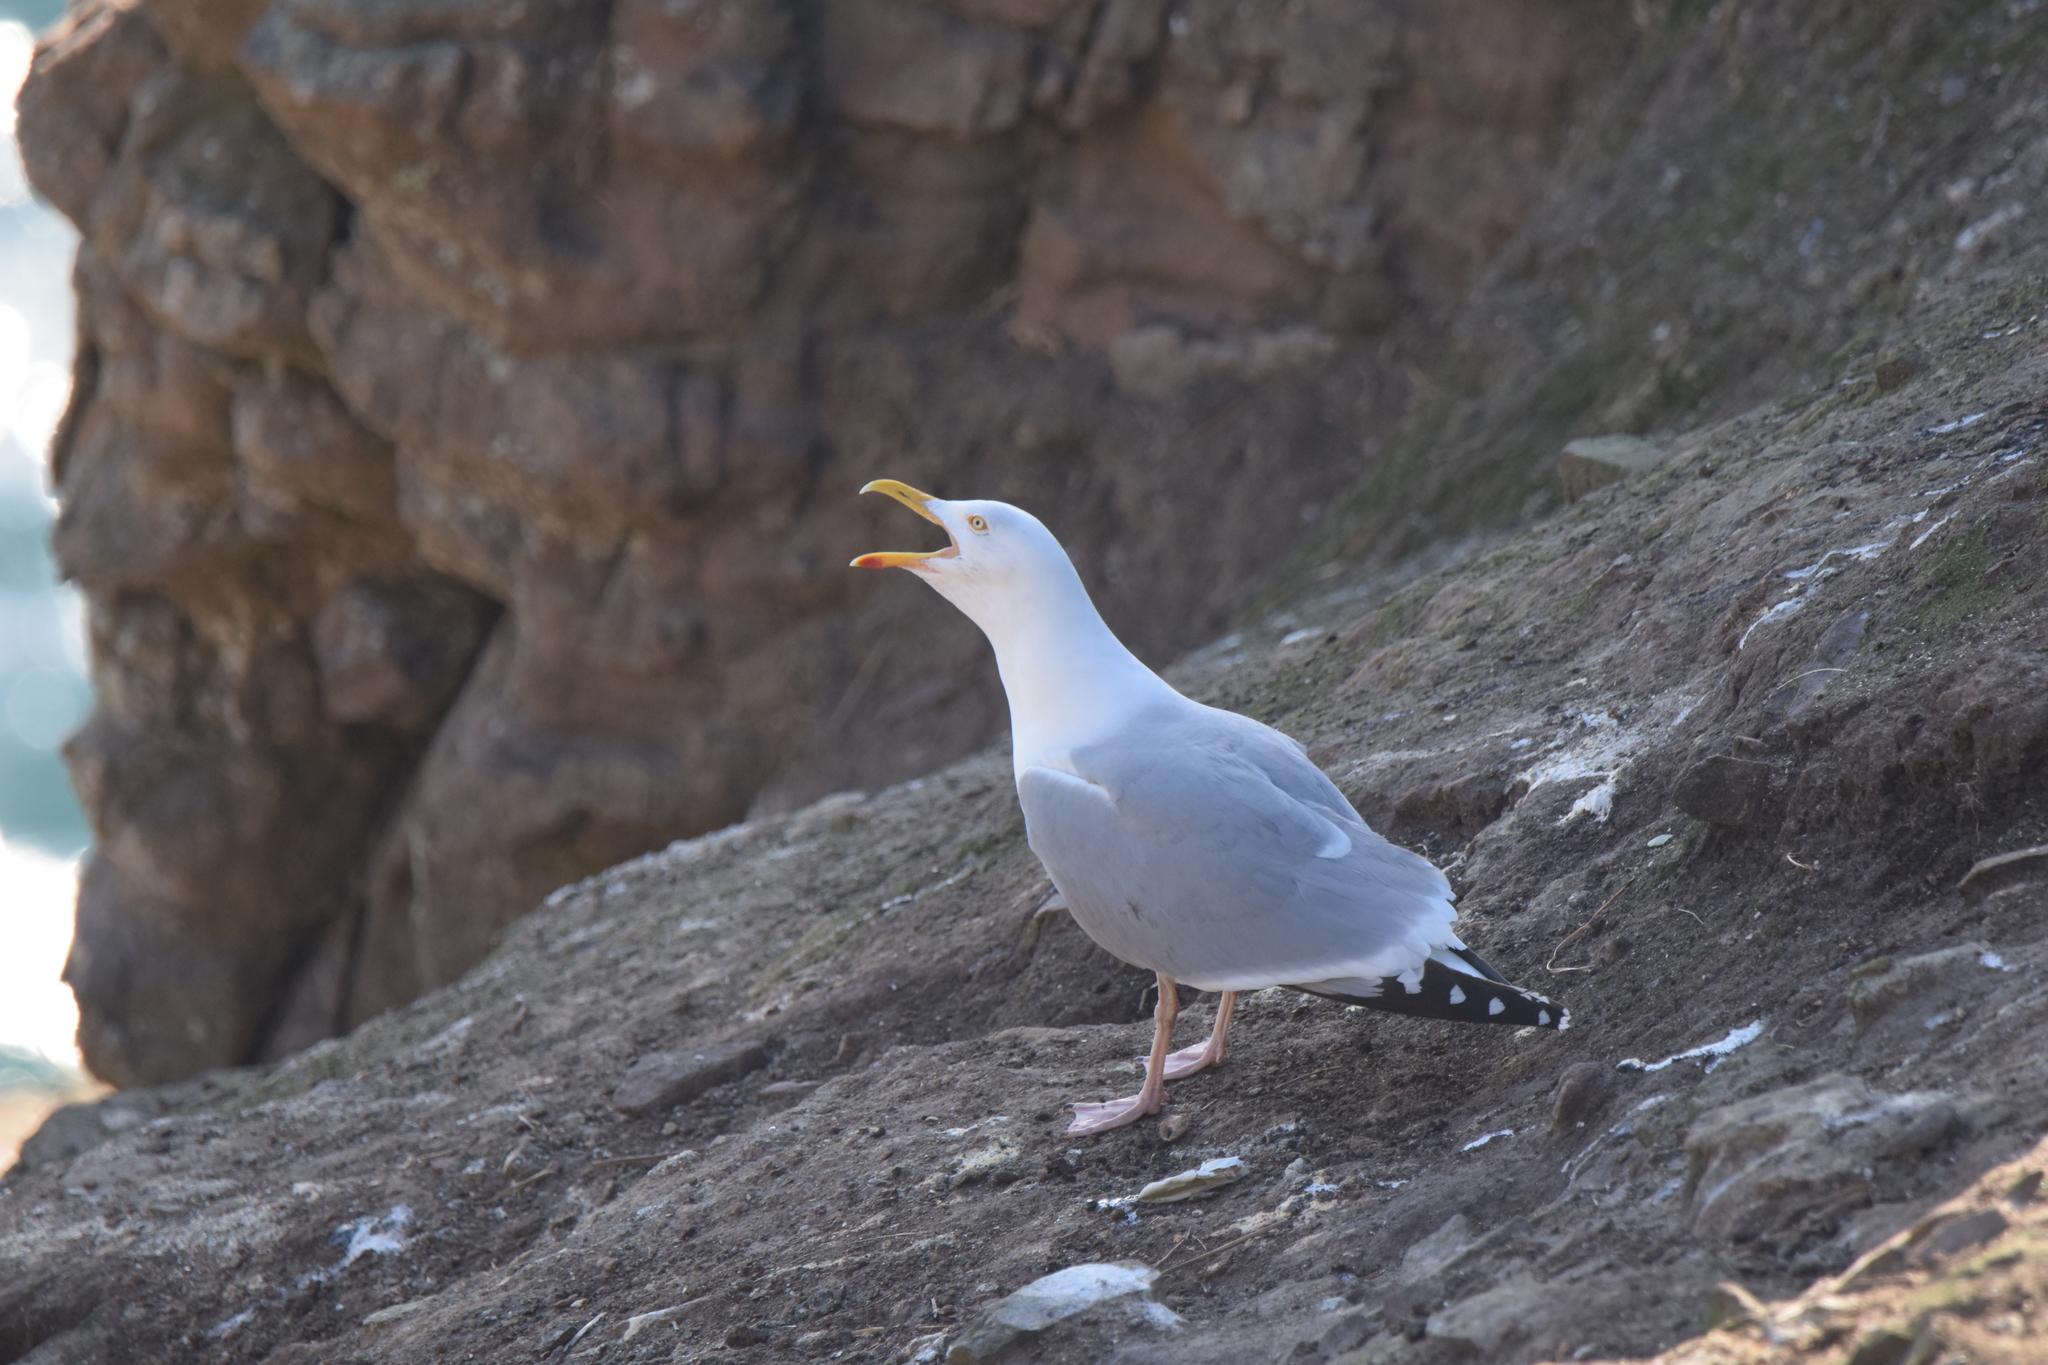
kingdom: Animalia
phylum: Chordata
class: Aves
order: Charadriiformes
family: Laridae
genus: Larus
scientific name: Larus argentatus
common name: Herring gull
